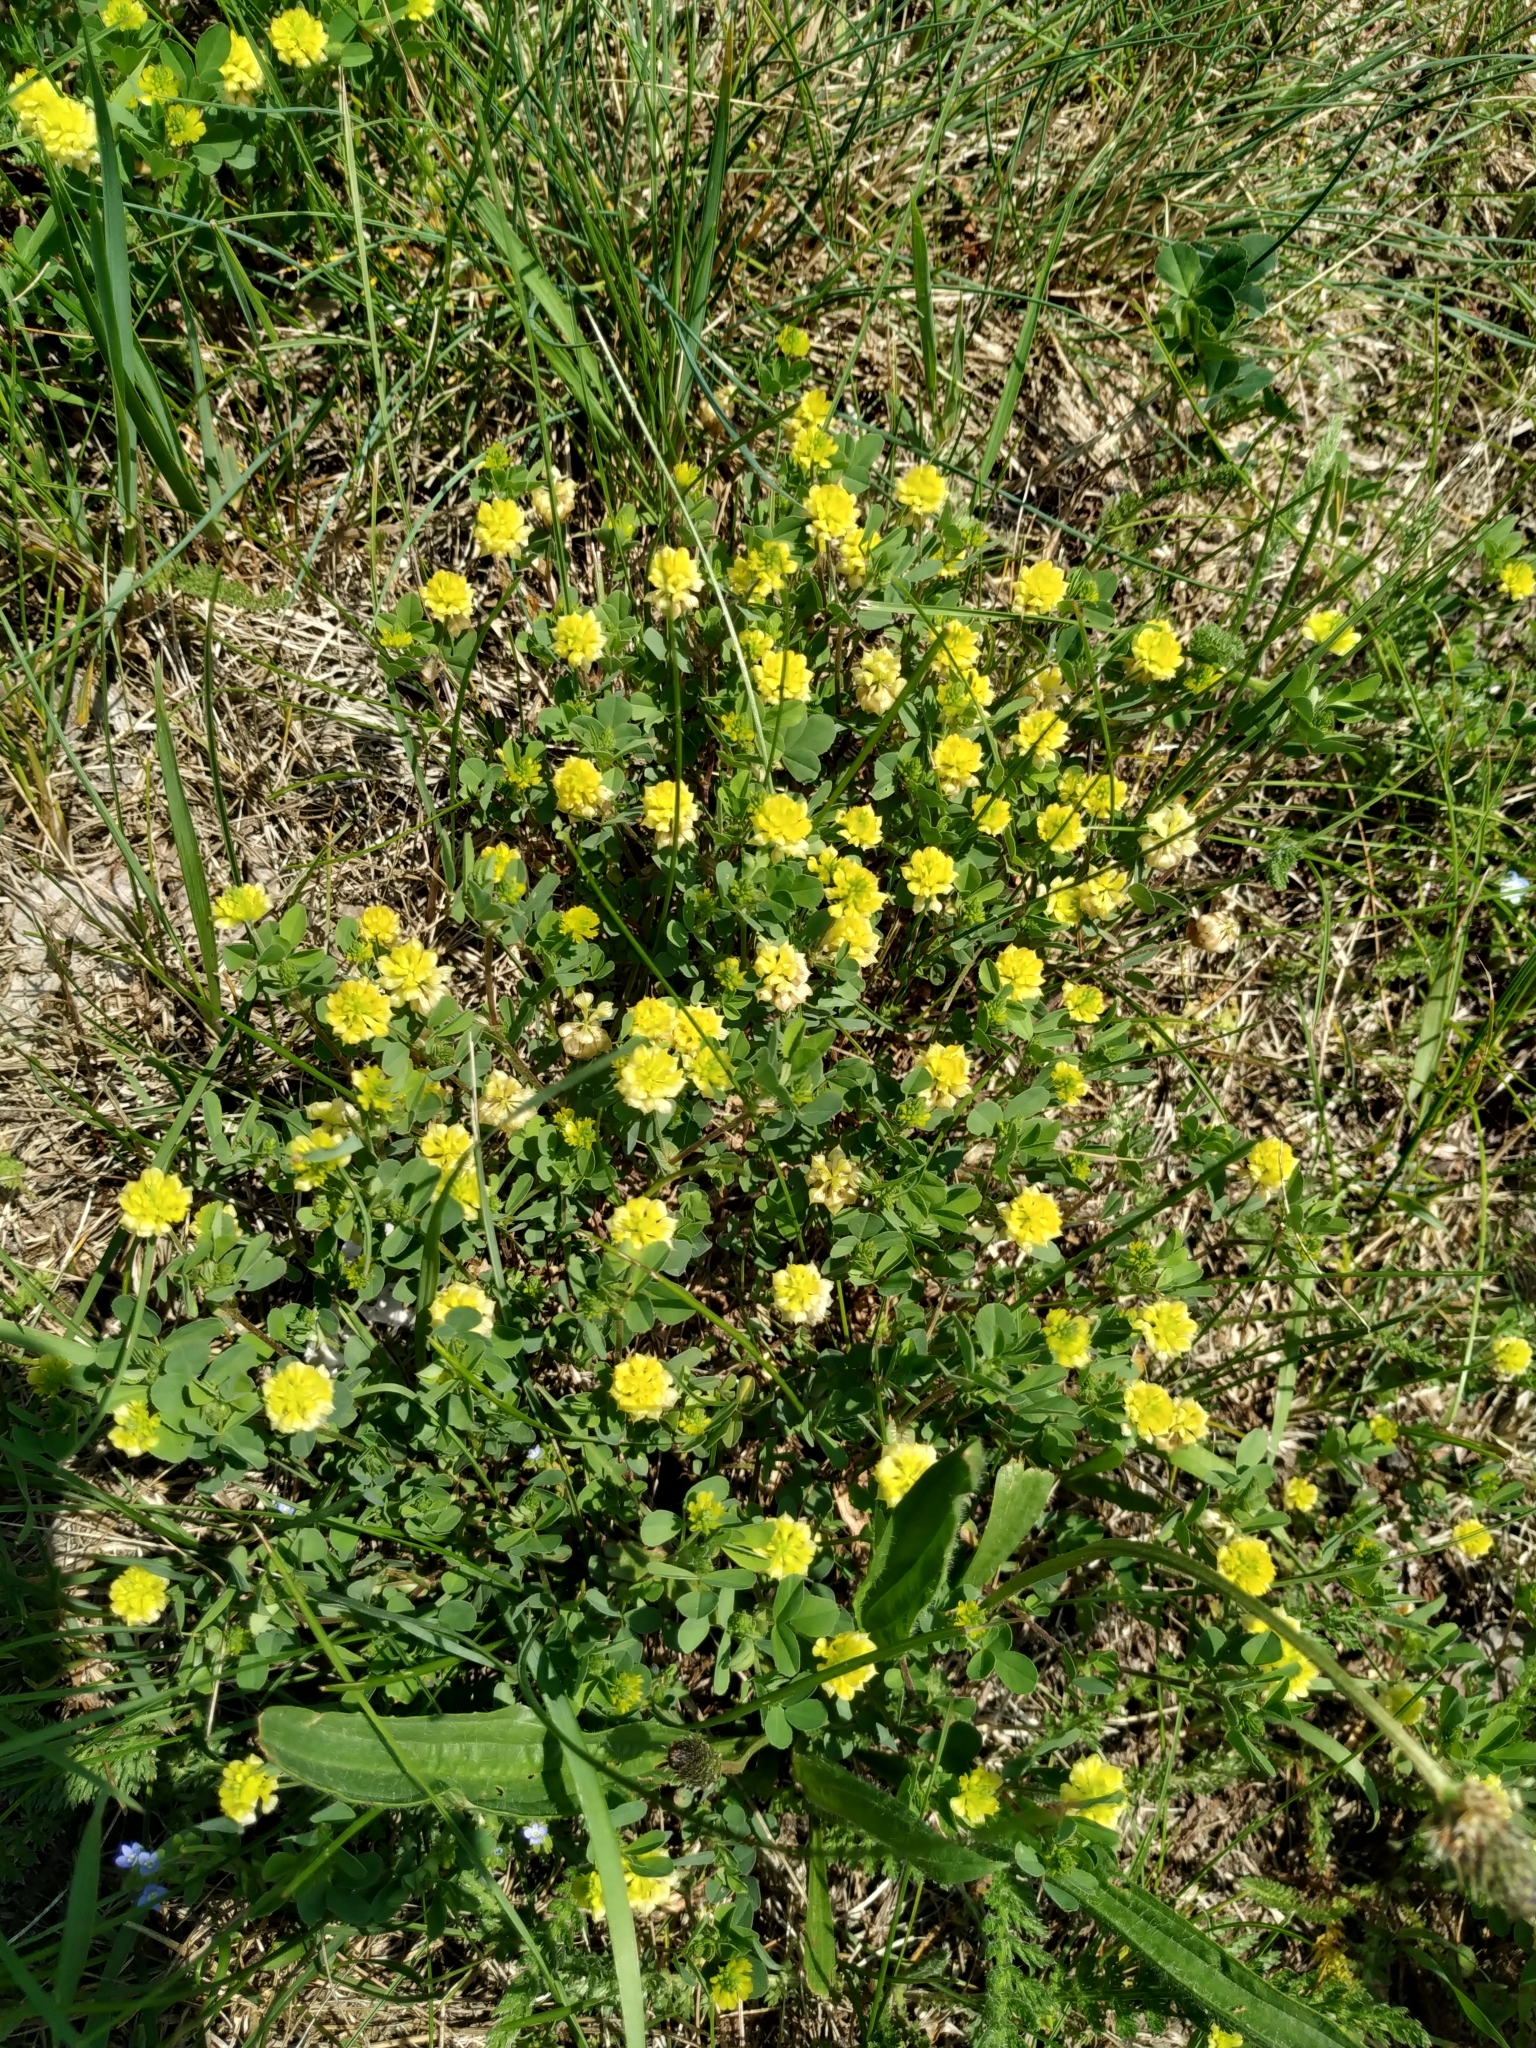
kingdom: Plantae
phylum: Tracheophyta
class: Magnoliopsida
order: Fabales
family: Fabaceae
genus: Trifolium
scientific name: Trifolium campestre
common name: Field clover
